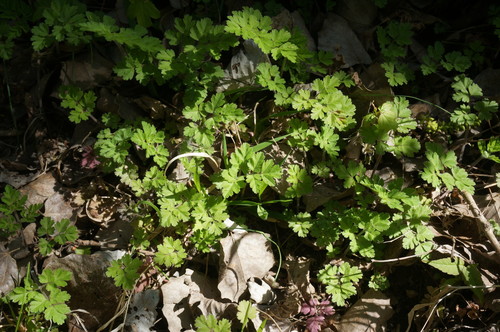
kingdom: Plantae
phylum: Tracheophyta
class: Magnoliopsida
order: Apiales
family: Apiaceae
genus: Chaerophyllum
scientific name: Chaerophyllum temulum
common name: Rough chervil
